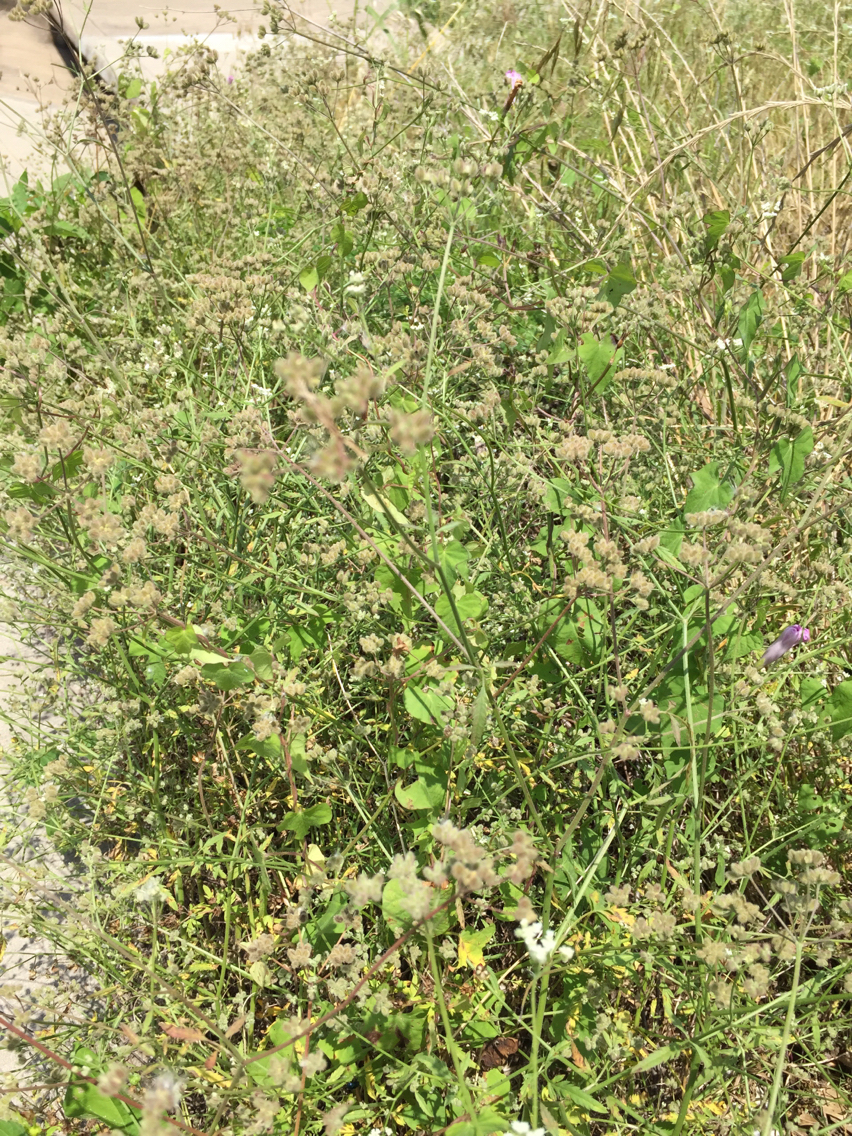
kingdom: Plantae
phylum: Tracheophyta
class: Magnoliopsida
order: Apiales
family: Apiaceae
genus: Torilis
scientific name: Torilis arvensis
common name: Spreading hedge-parsley
